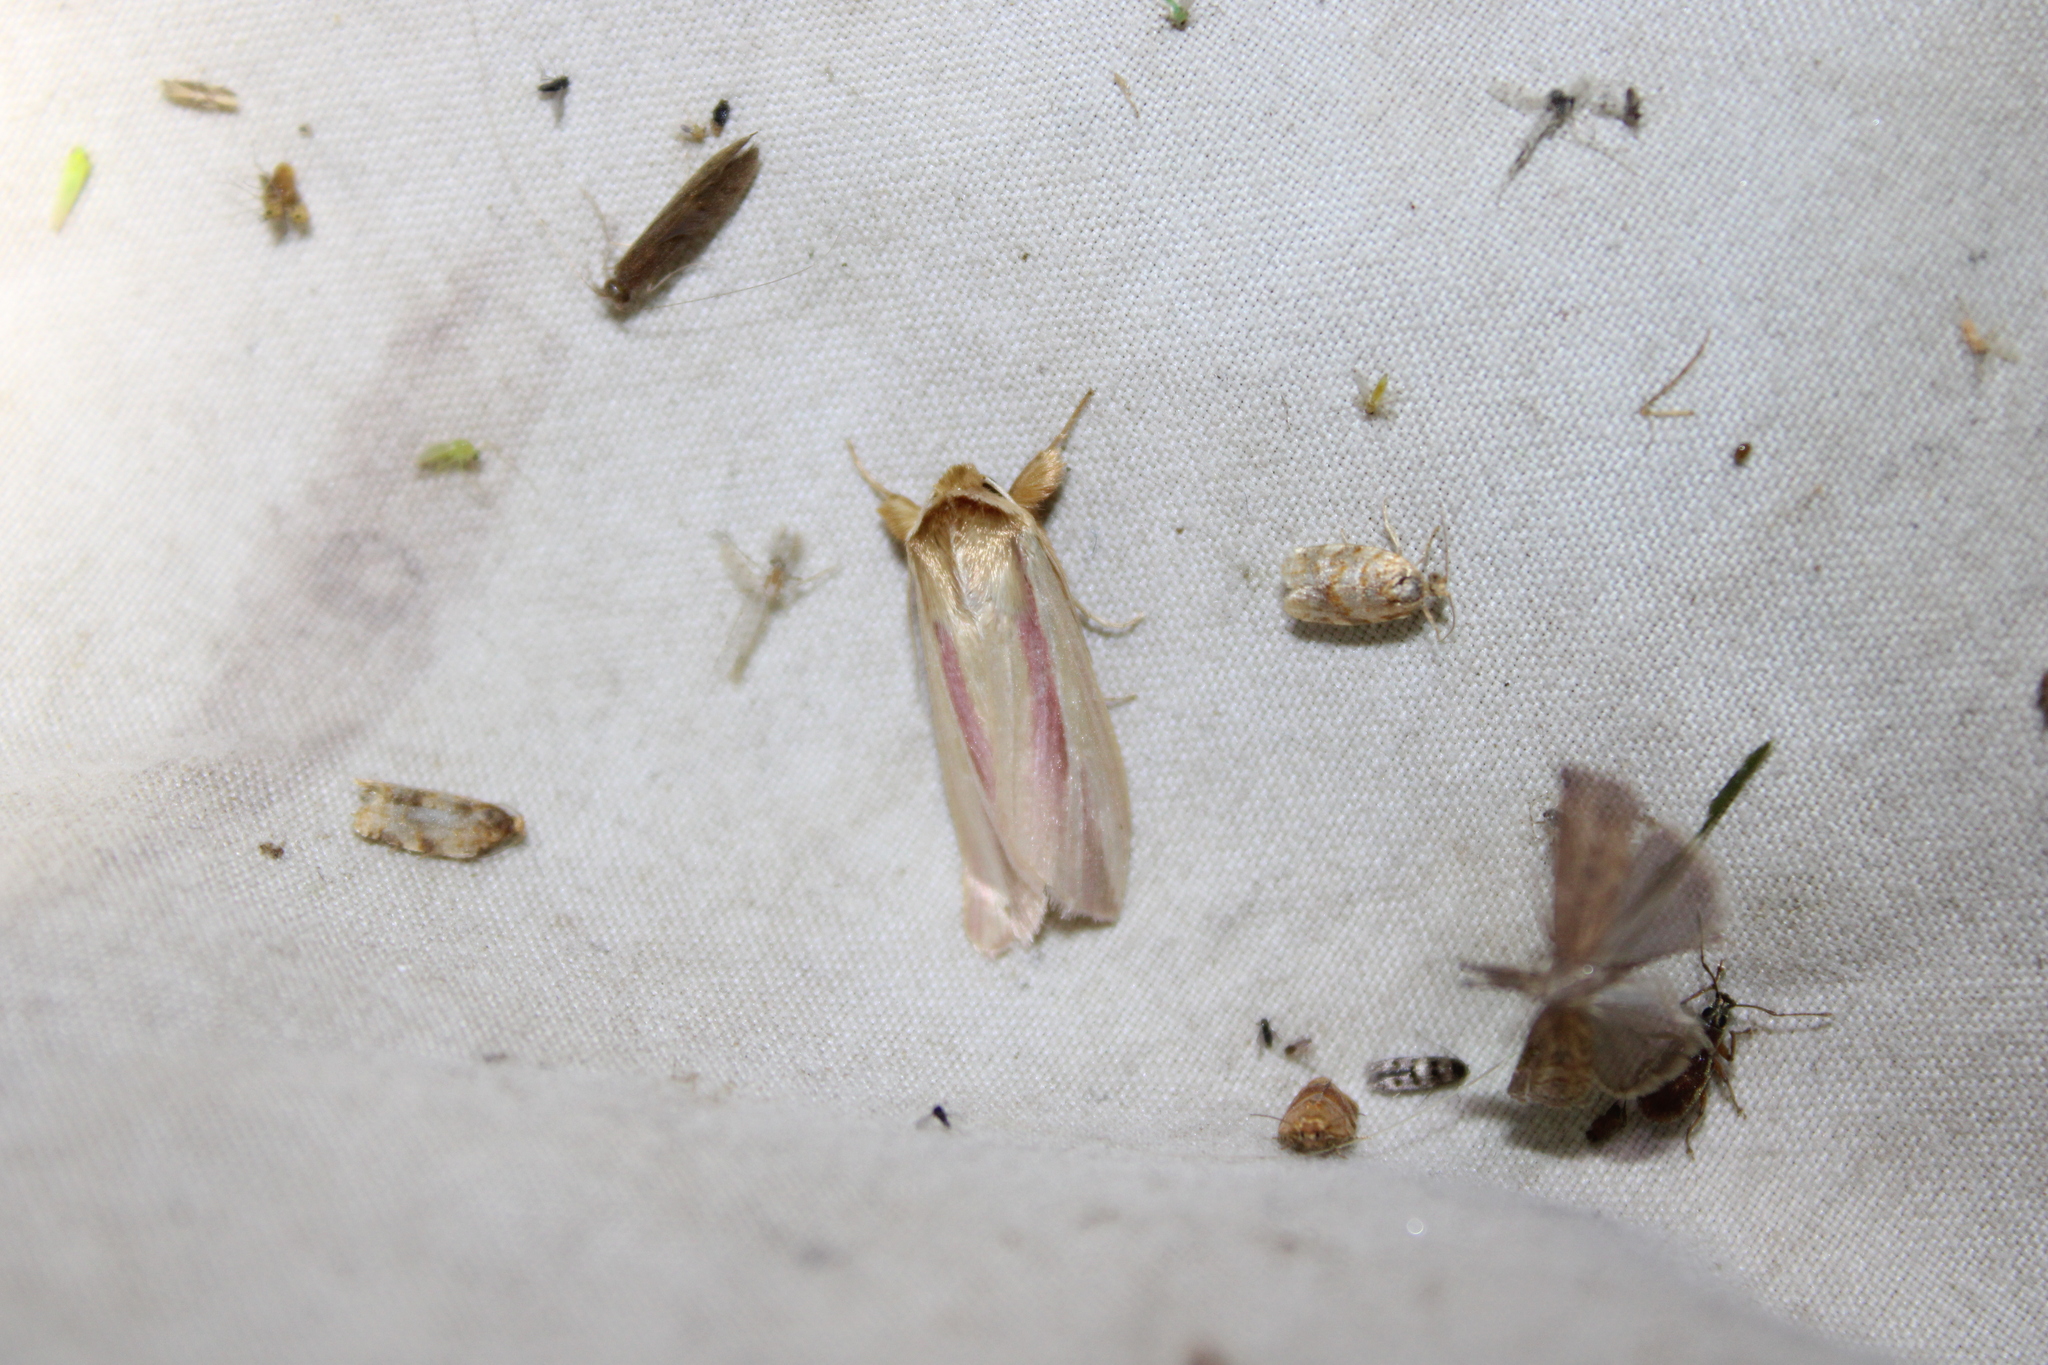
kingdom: Animalia
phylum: Arthropoda
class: Insecta
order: Lepidoptera
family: Noctuidae
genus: Dargida
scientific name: Dargida rubripennis
